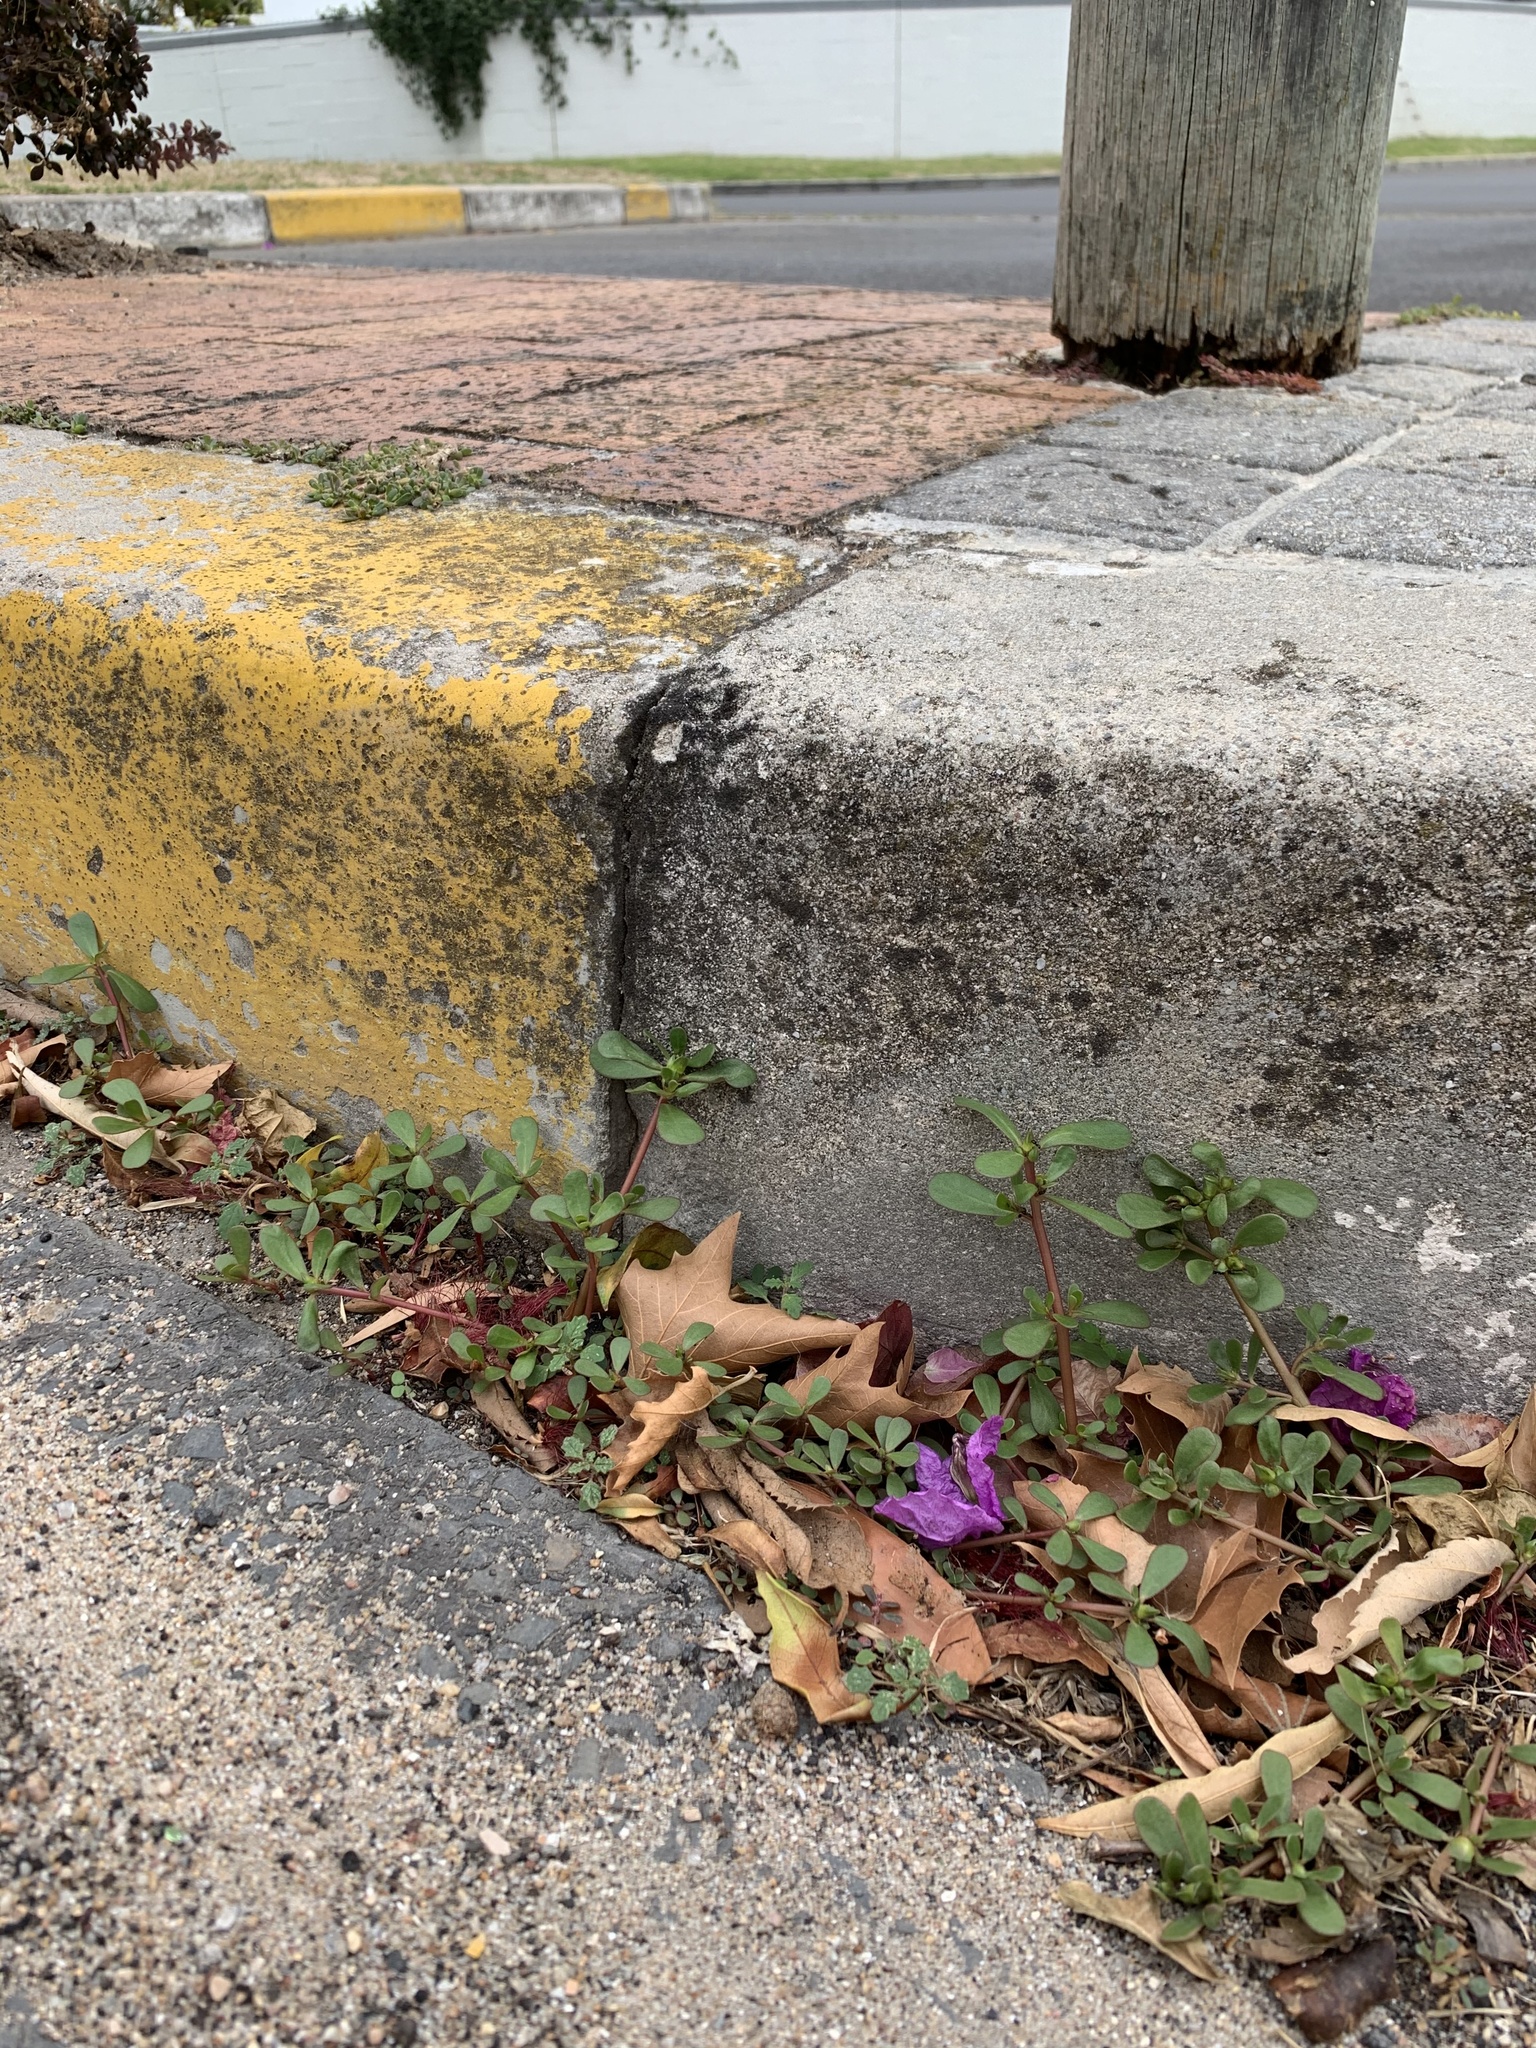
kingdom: Plantae
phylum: Tracheophyta
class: Magnoliopsida
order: Caryophyllales
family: Portulacaceae
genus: Portulaca
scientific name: Portulaca oleracea
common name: Common purslane
